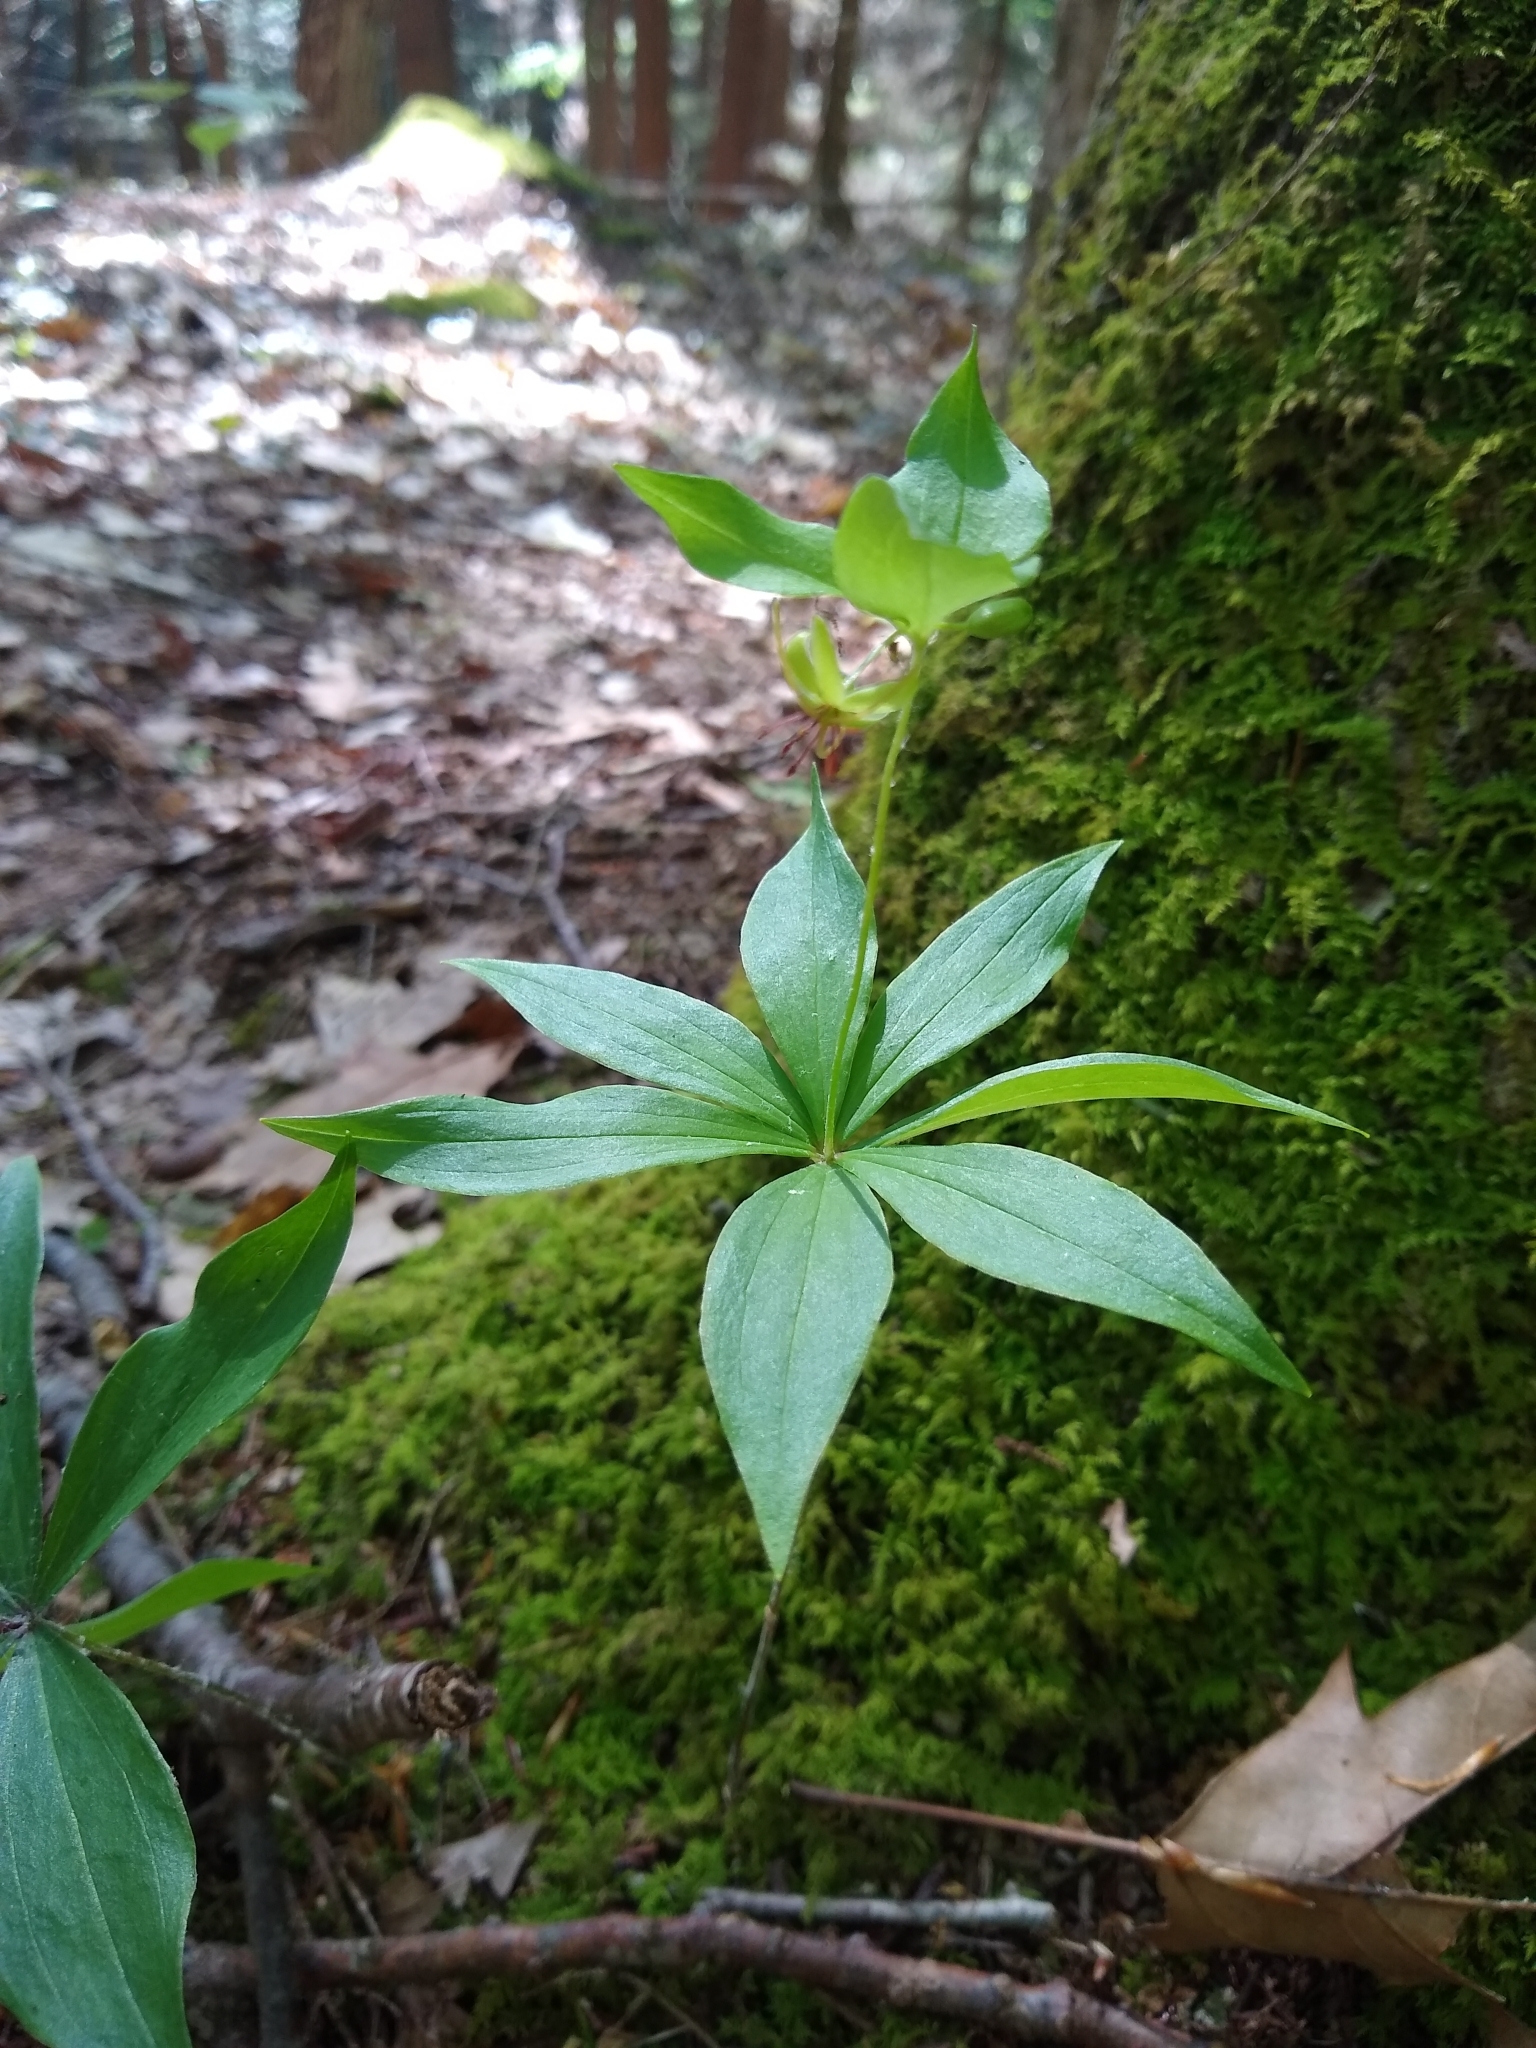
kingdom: Plantae
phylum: Tracheophyta
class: Liliopsida
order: Liliales
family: Liliaceae
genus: Medeola
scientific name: Medeola virginiana
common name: Indian cucumber-root
